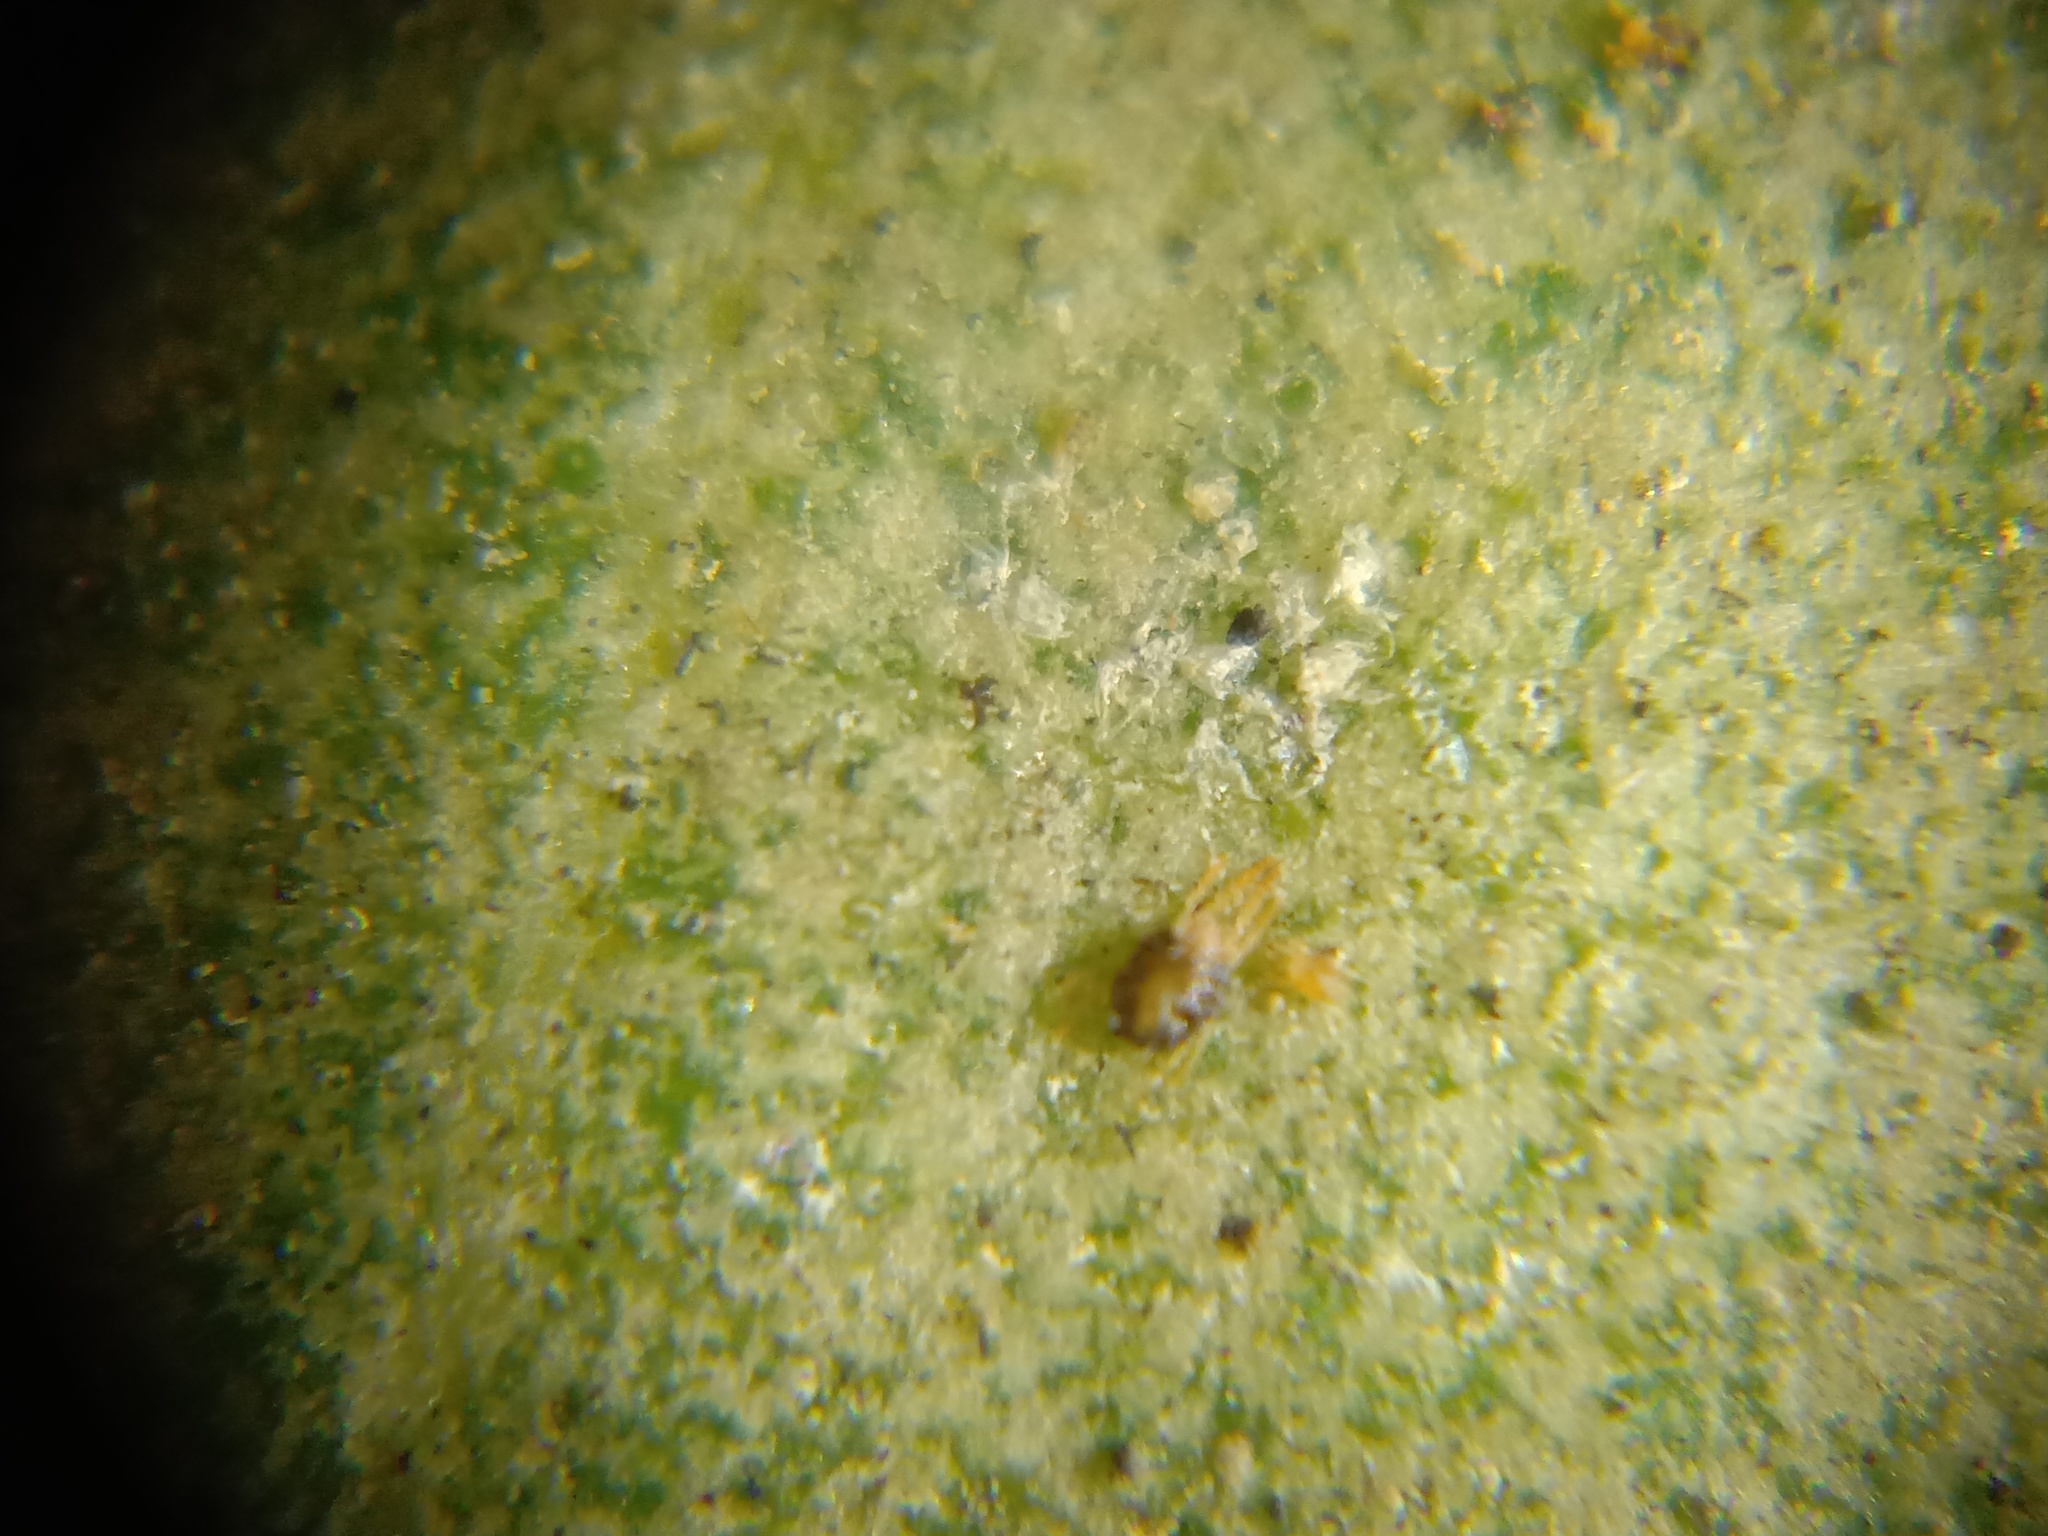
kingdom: Animalia
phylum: Arthropoda
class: Arachnida
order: Trombidiformes
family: Tetranychidae
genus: Tetranychus
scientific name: Tetranychus urticae
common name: Carmine spider mite
